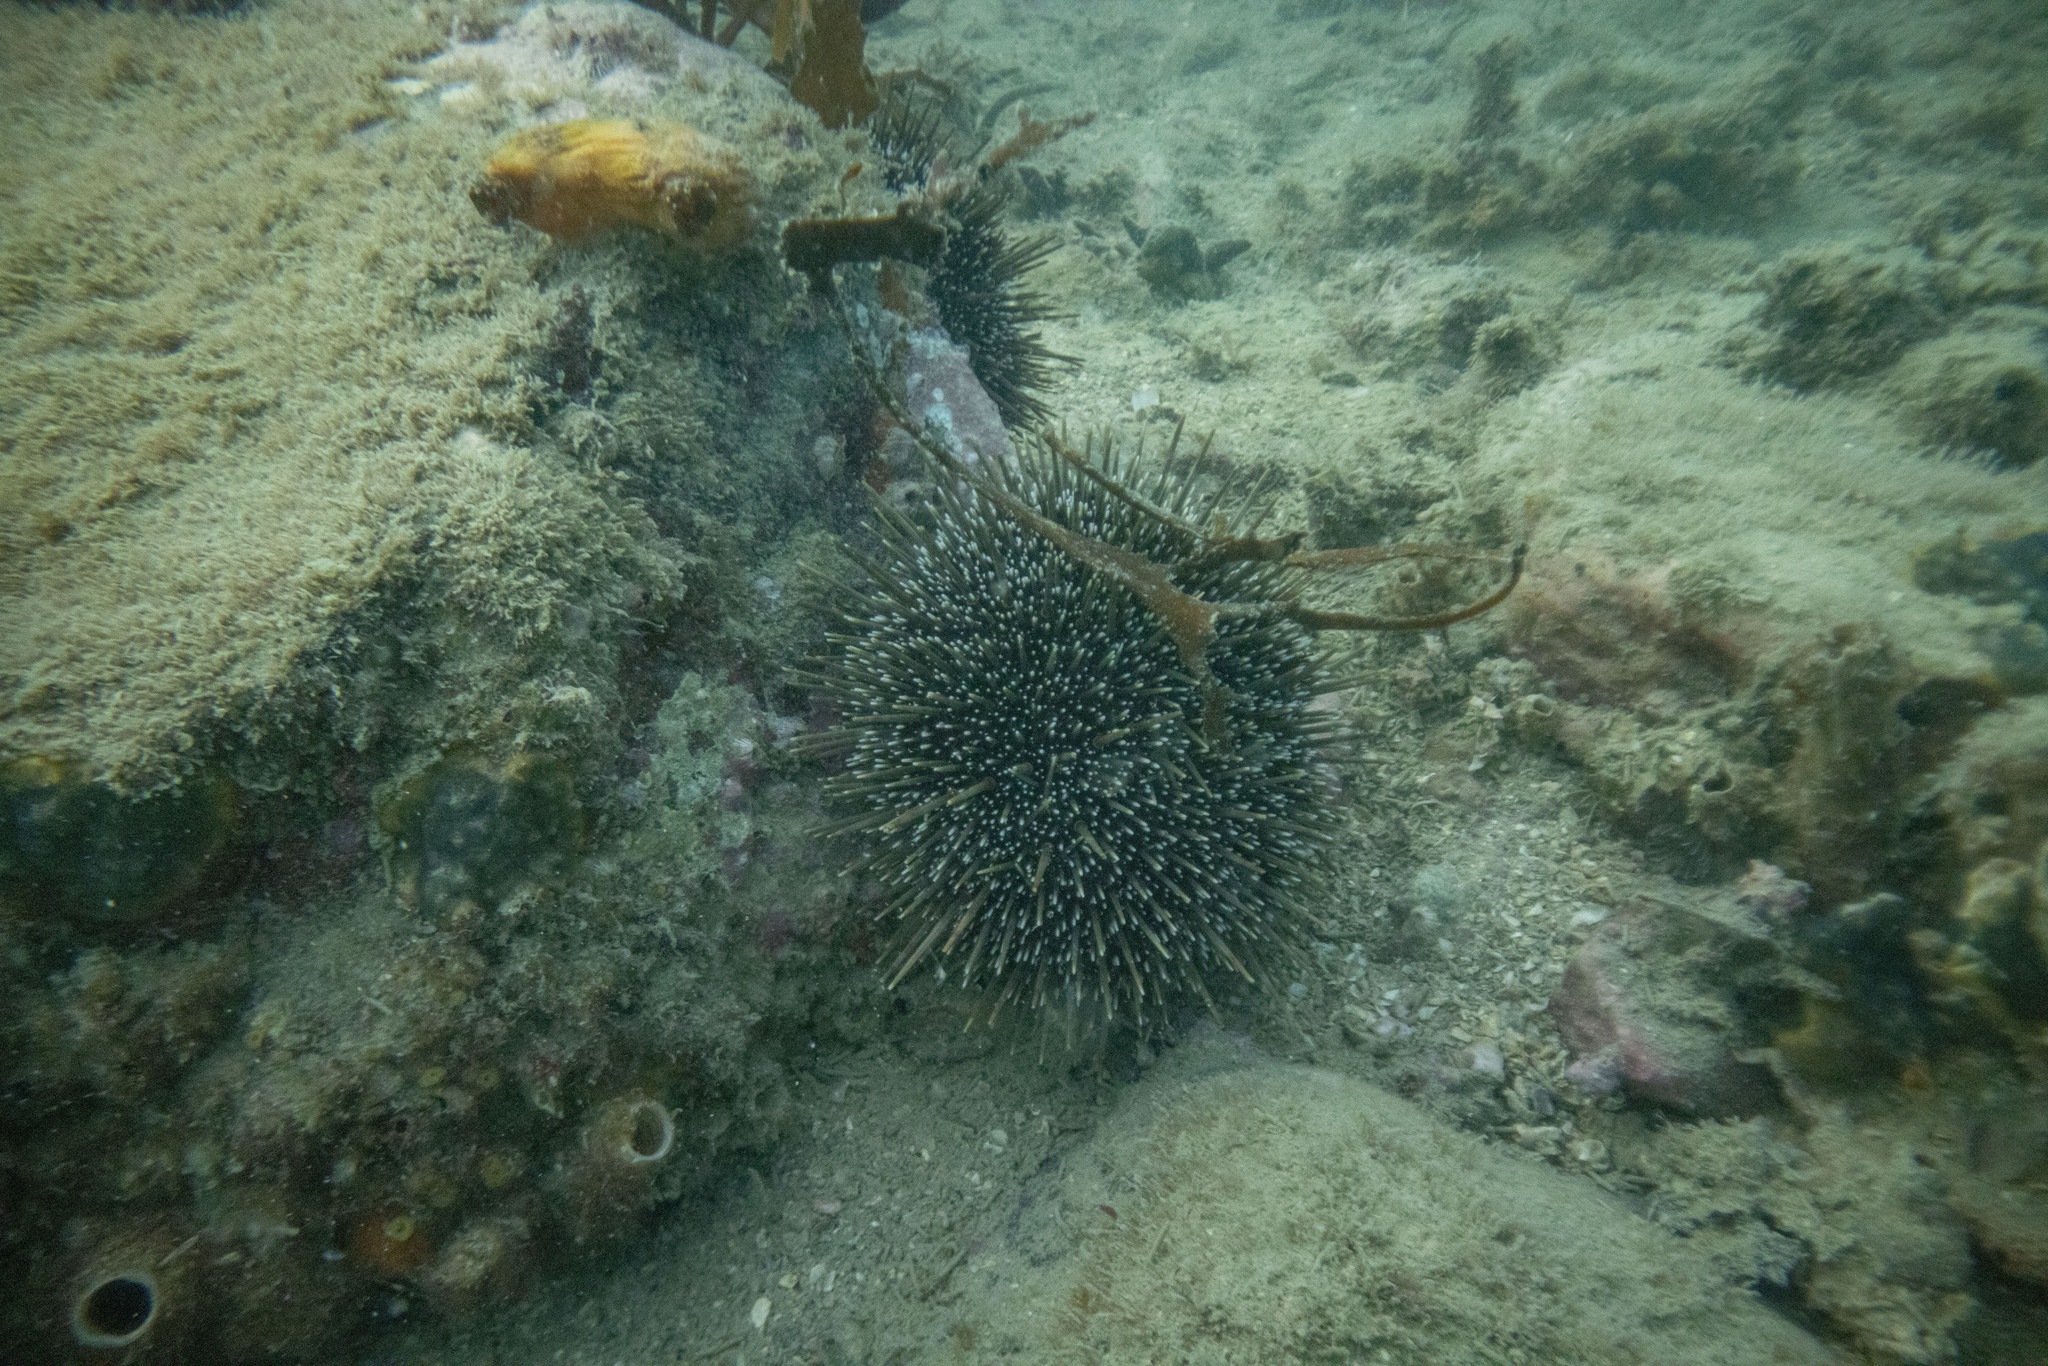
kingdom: Animalia
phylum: Echinodermata
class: Echinoidea
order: Camarodonta
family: Echinometridae
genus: Evechinus
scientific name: Evechinus chloroticus
